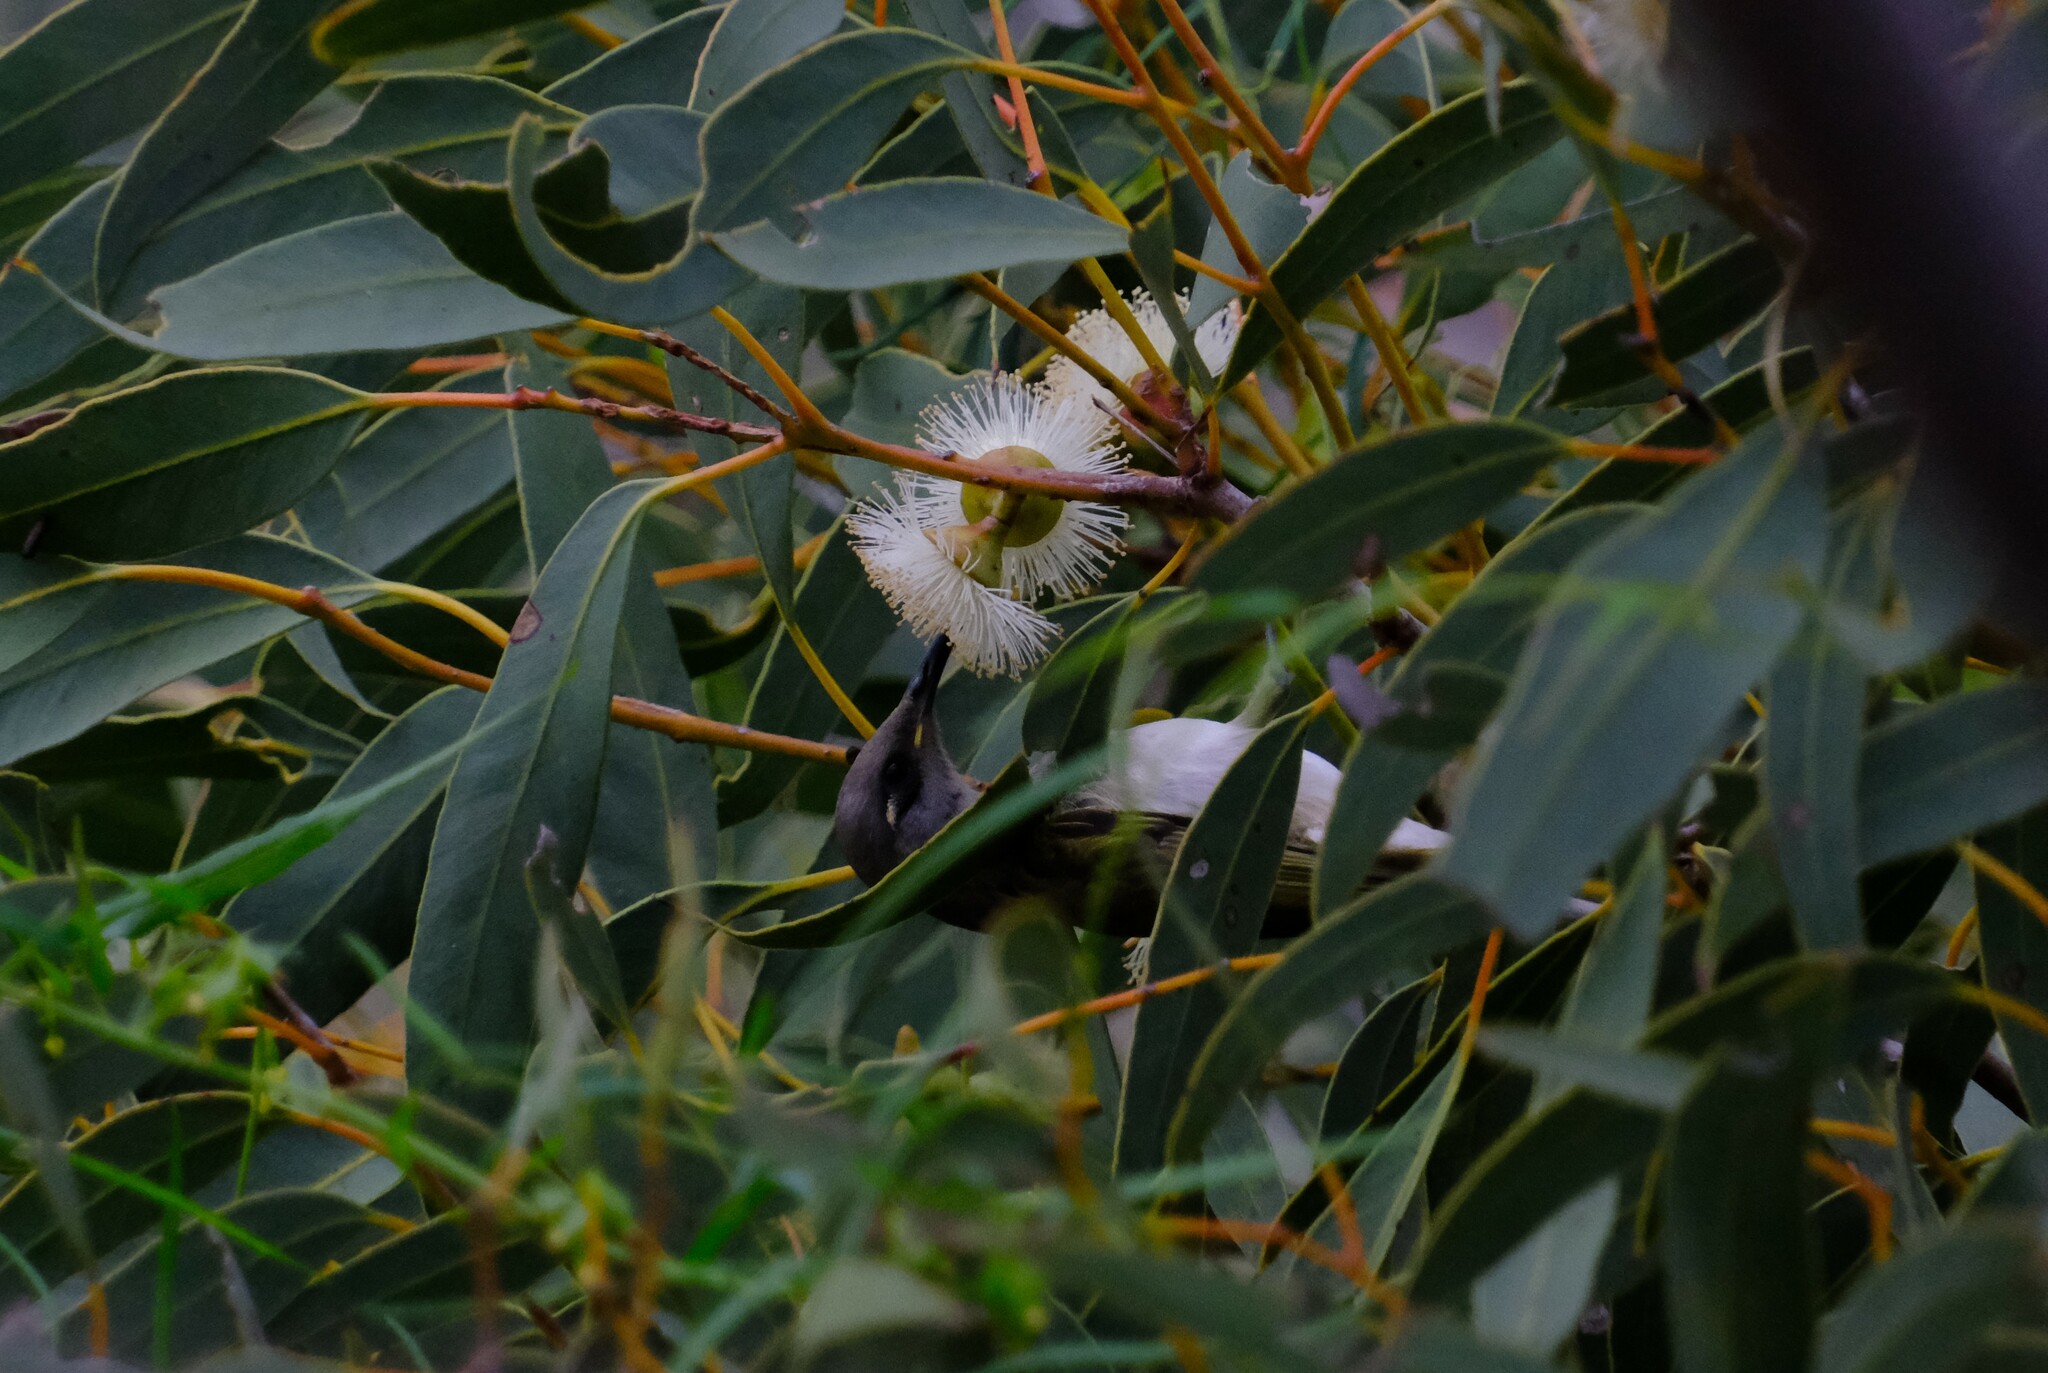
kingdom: Animalia
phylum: Chordata
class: Aves
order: Passeriformes
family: Meliphagidae
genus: Lichmera
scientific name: Lichmera indistincta
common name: Brown honeyeater
